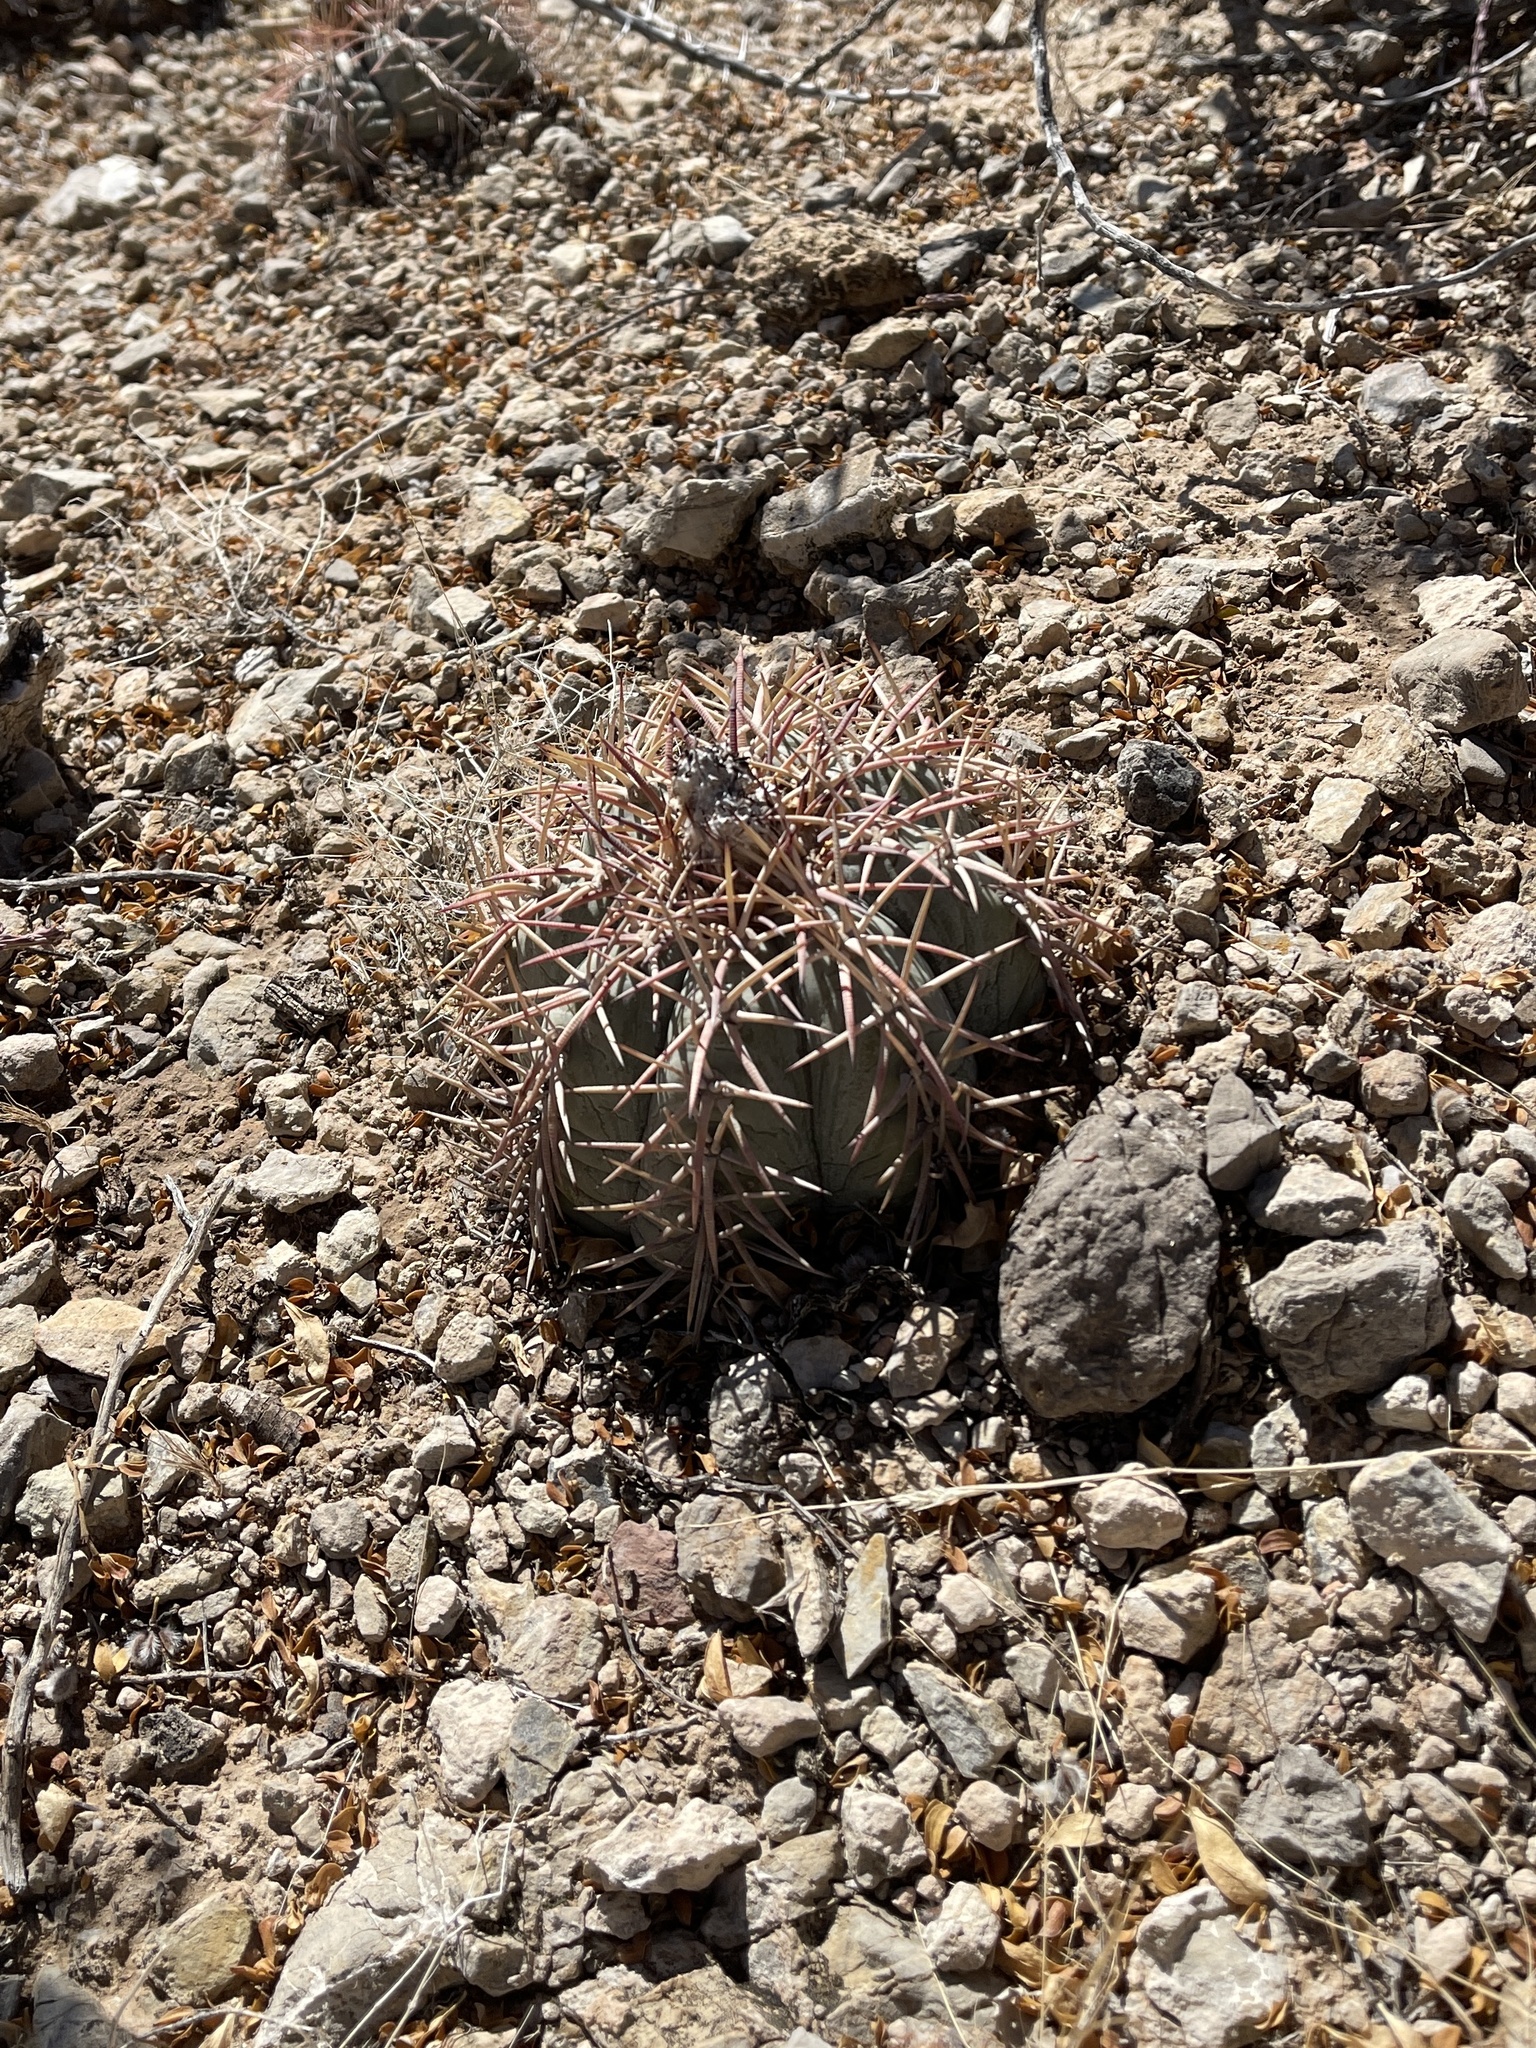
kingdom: Plantae
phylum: Tracheophyta
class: Magnoliopsida
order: Caryophyllales
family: Cactaceae
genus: Echinocactus
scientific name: Echinocactus horizonthalonius
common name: Devilshead
